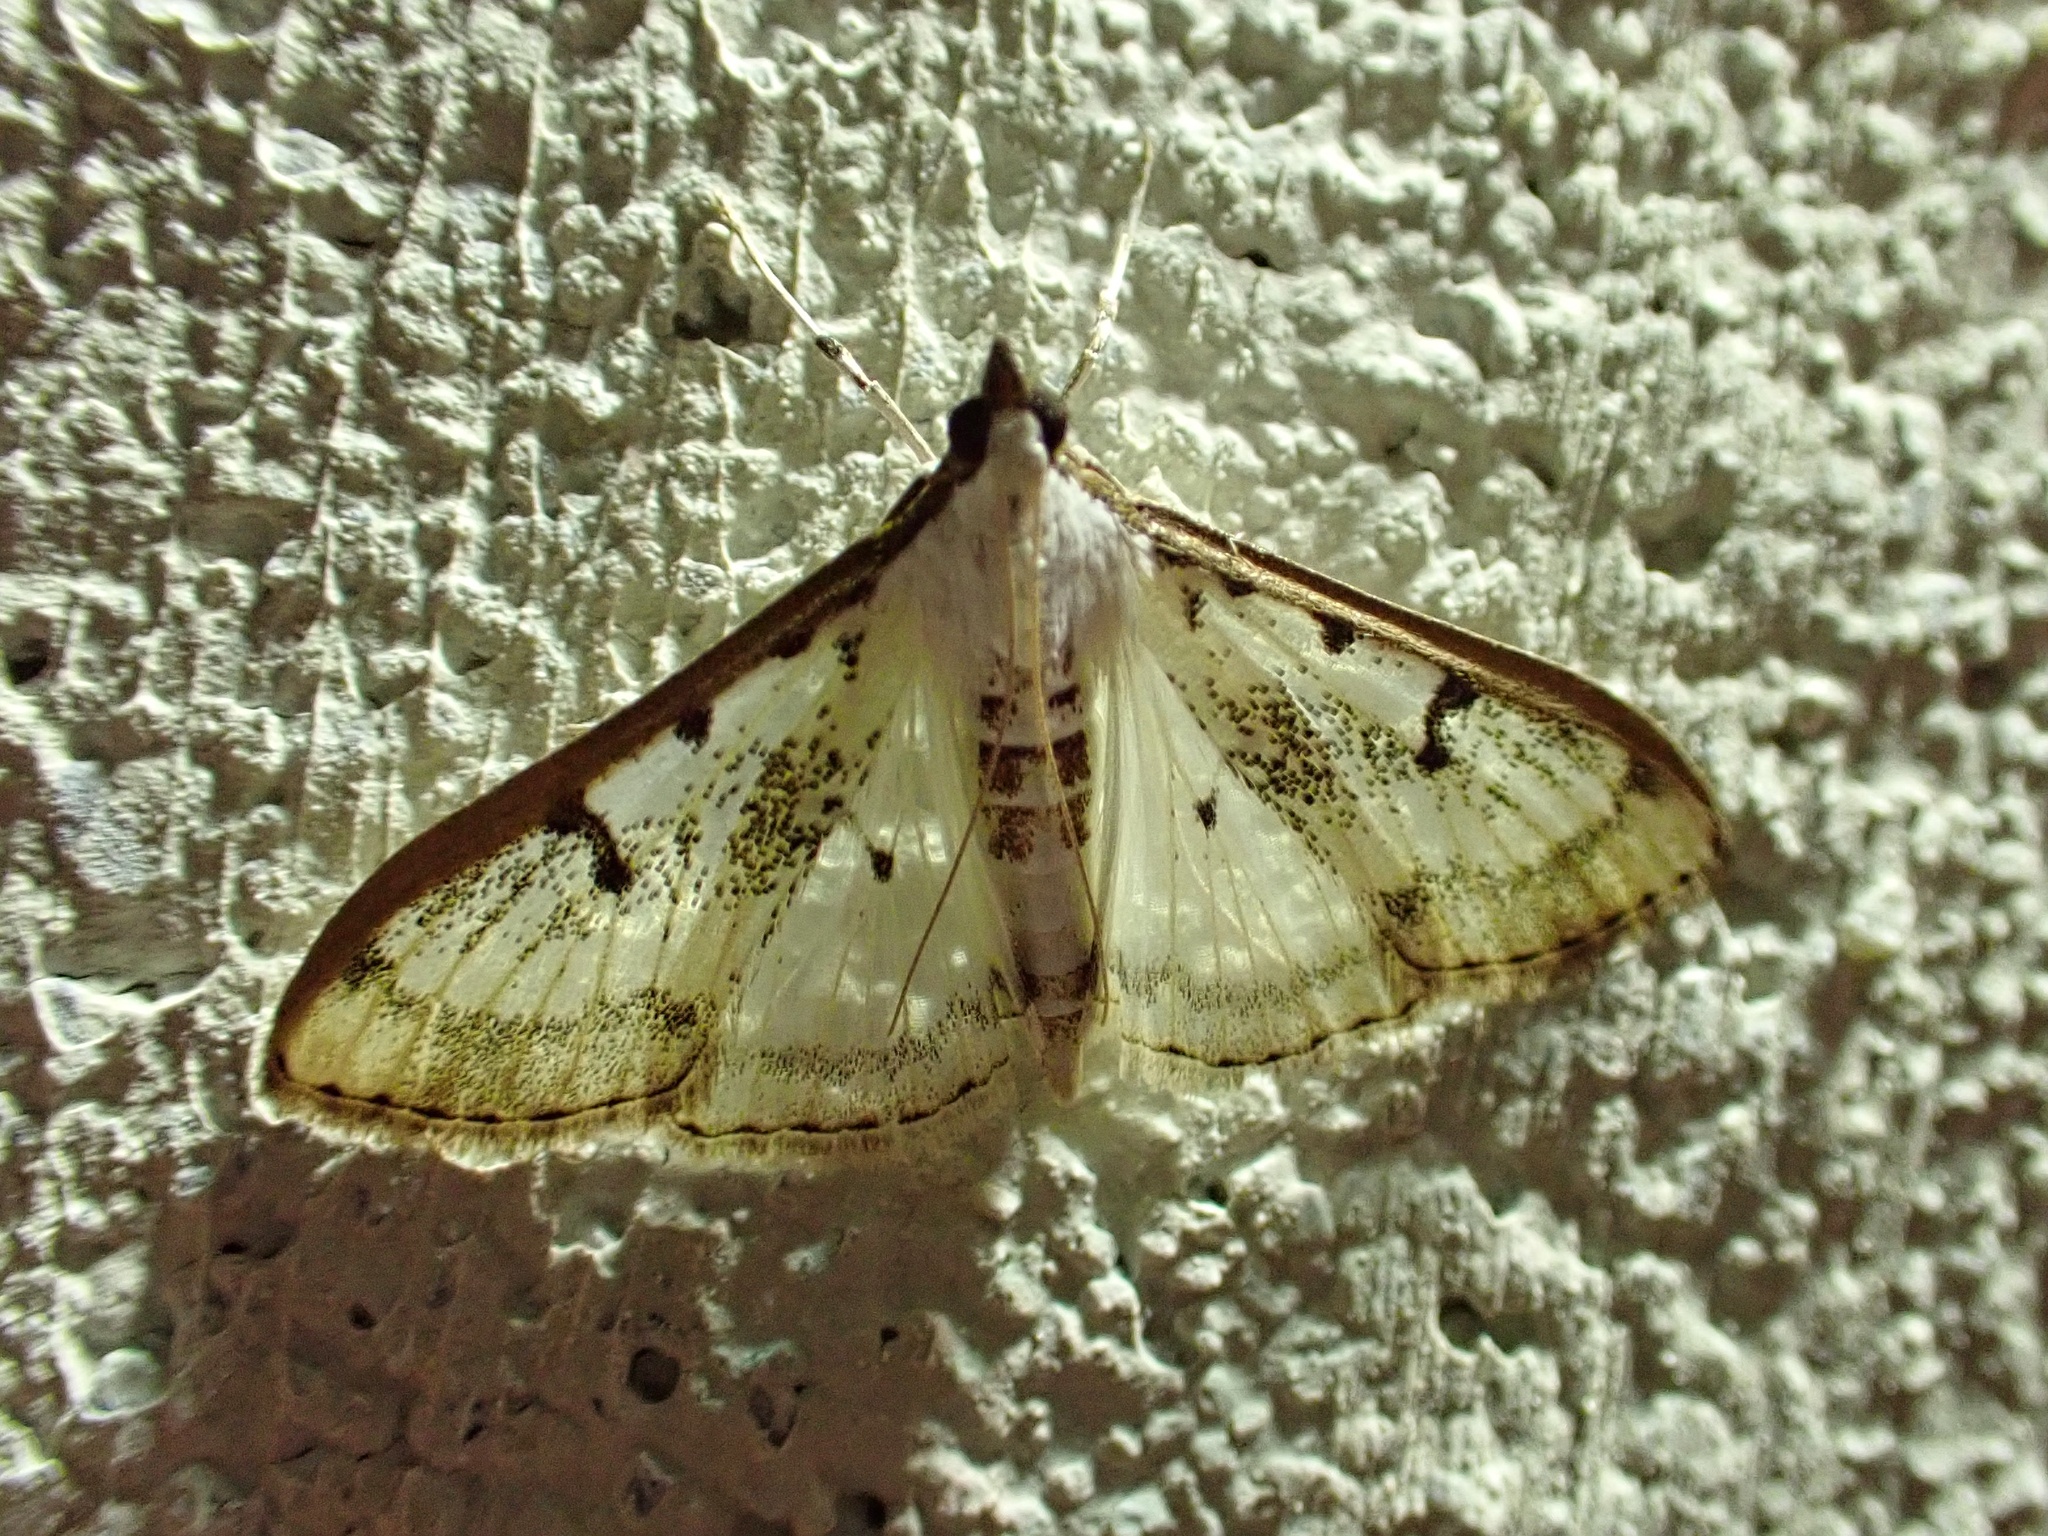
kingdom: Animalia
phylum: Arthropoda
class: Insecta
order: Lepidoptera
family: Crambidae
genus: Palpita
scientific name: Palpita gracilalis
